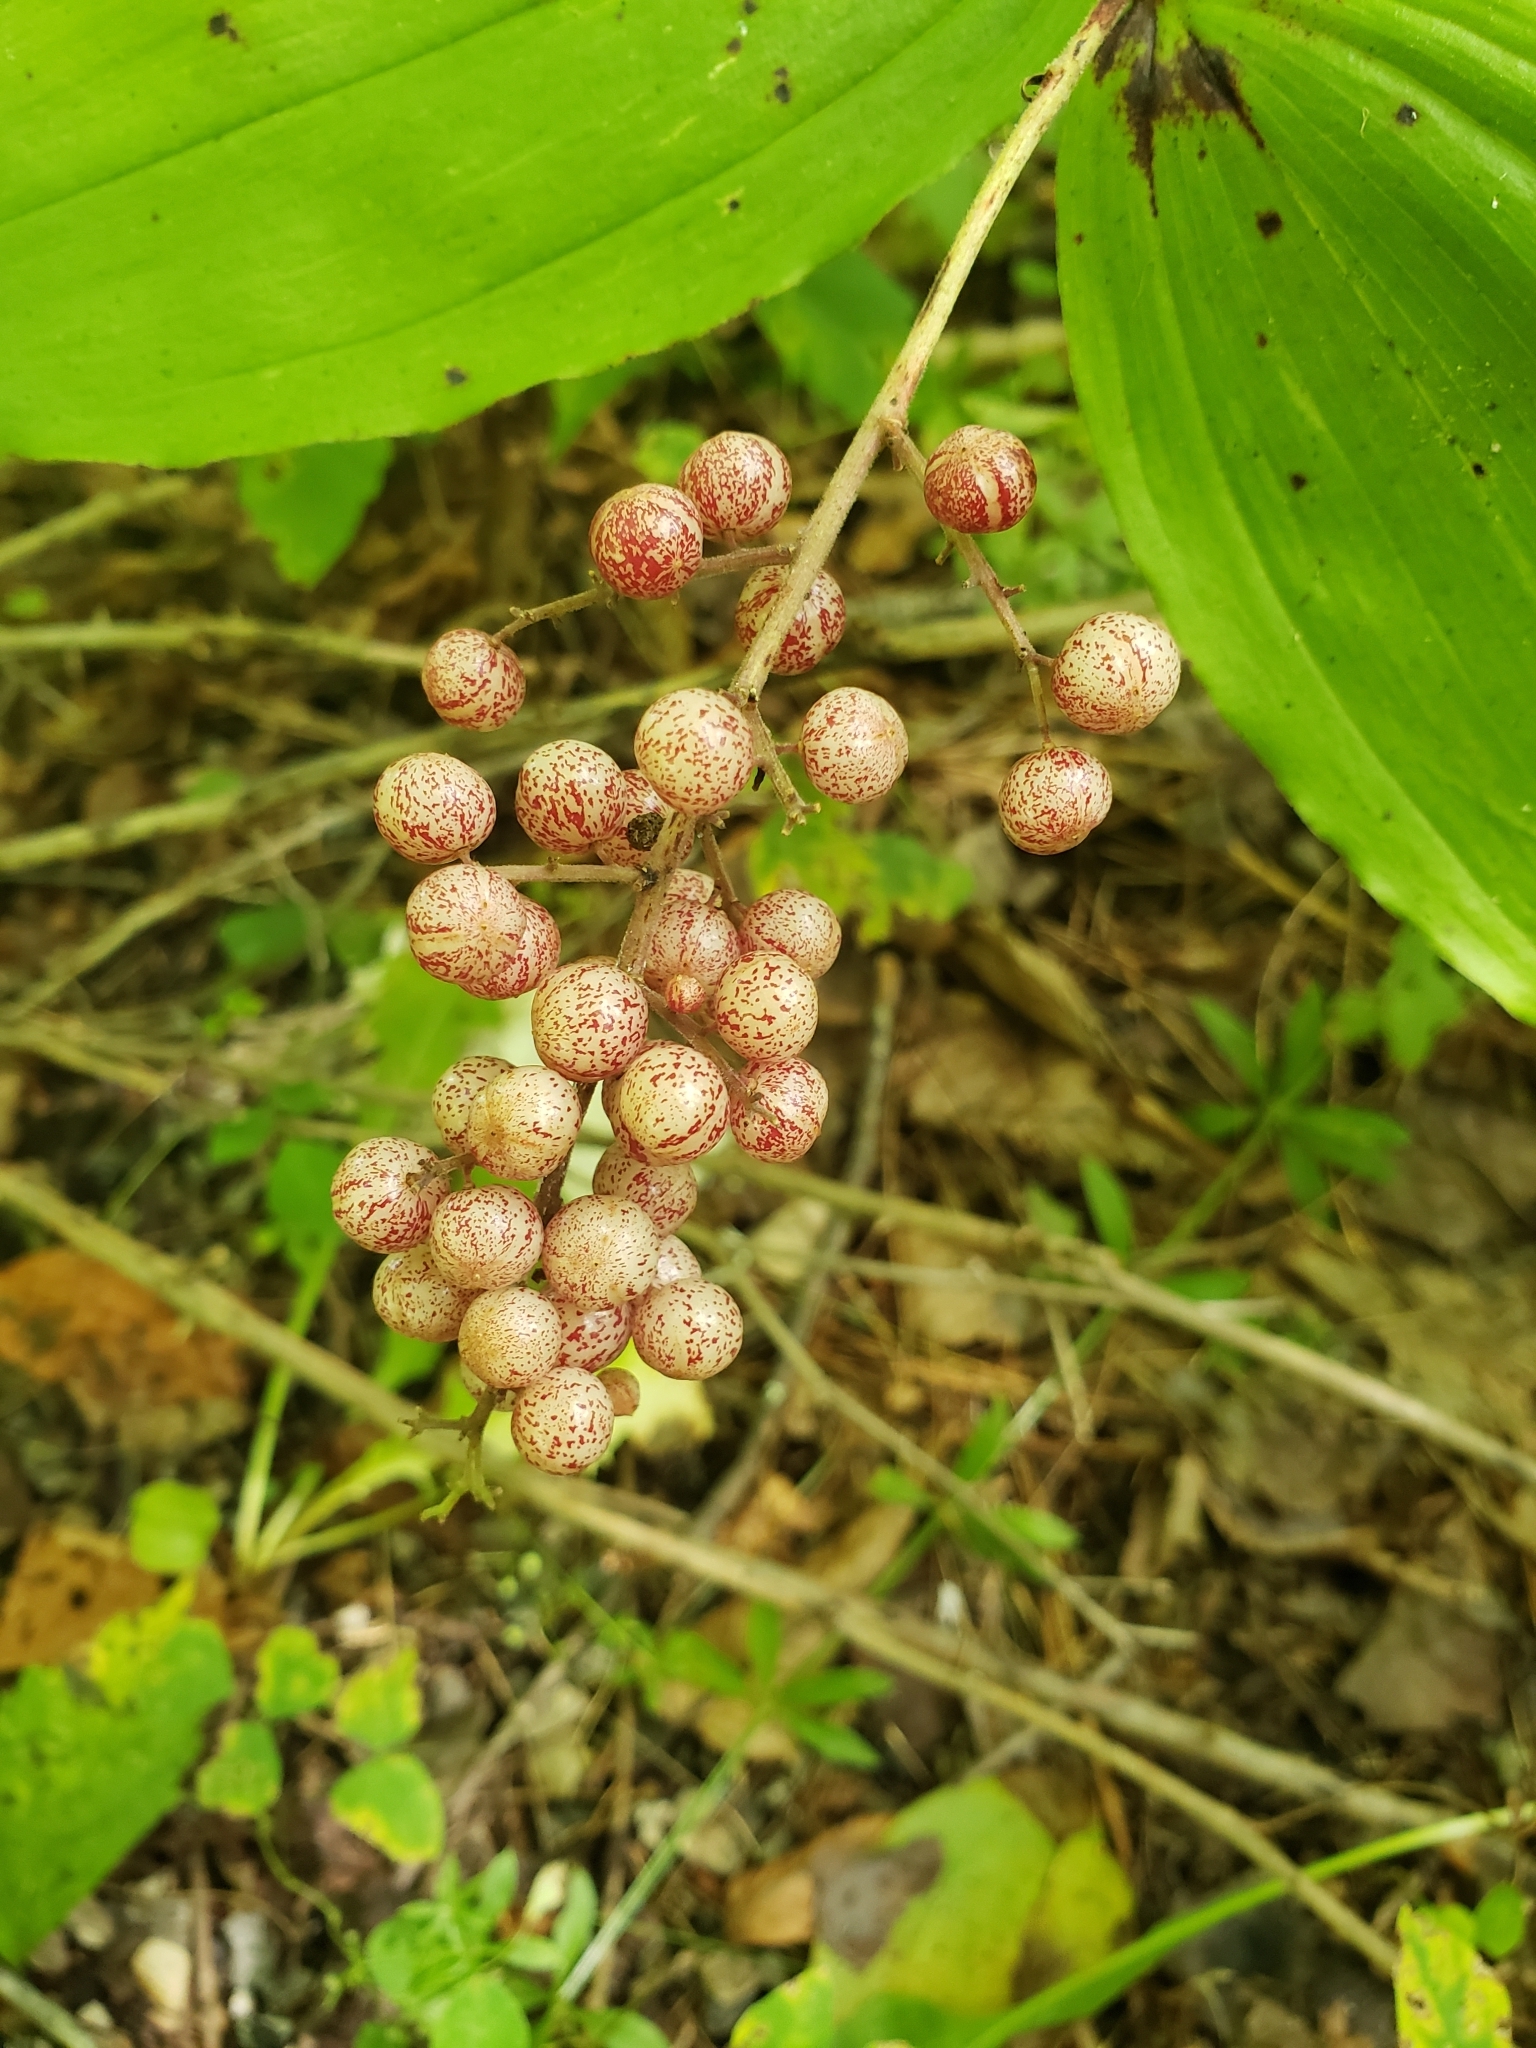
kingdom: Plantae
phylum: Tracheophyta
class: Liliopsida
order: Asparagales
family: Asparagaceae
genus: Maianthemum
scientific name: Maianthemum racemosum
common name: False spikenard
